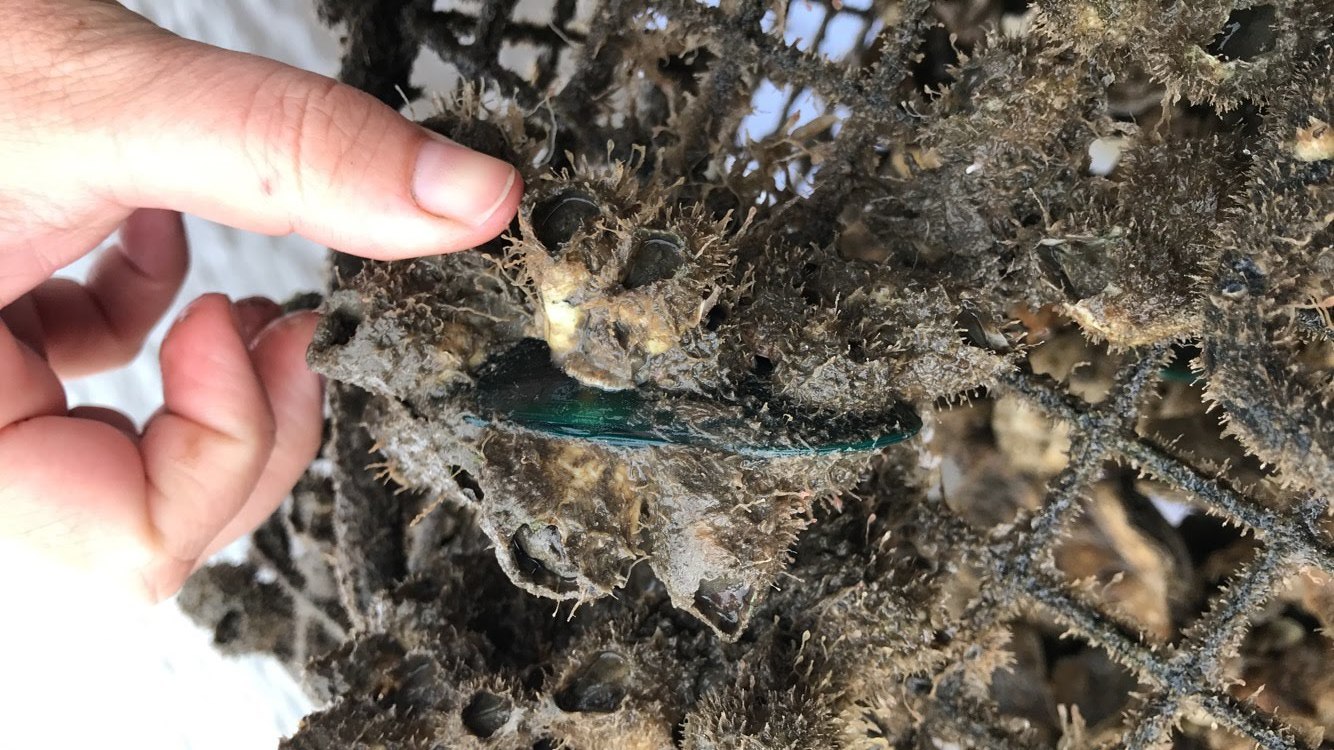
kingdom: Animalia
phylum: Mollusca
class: Bivalvia
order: Mytilida
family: Mytilidae
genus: Perna
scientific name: Perna viridis
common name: Green mussel
